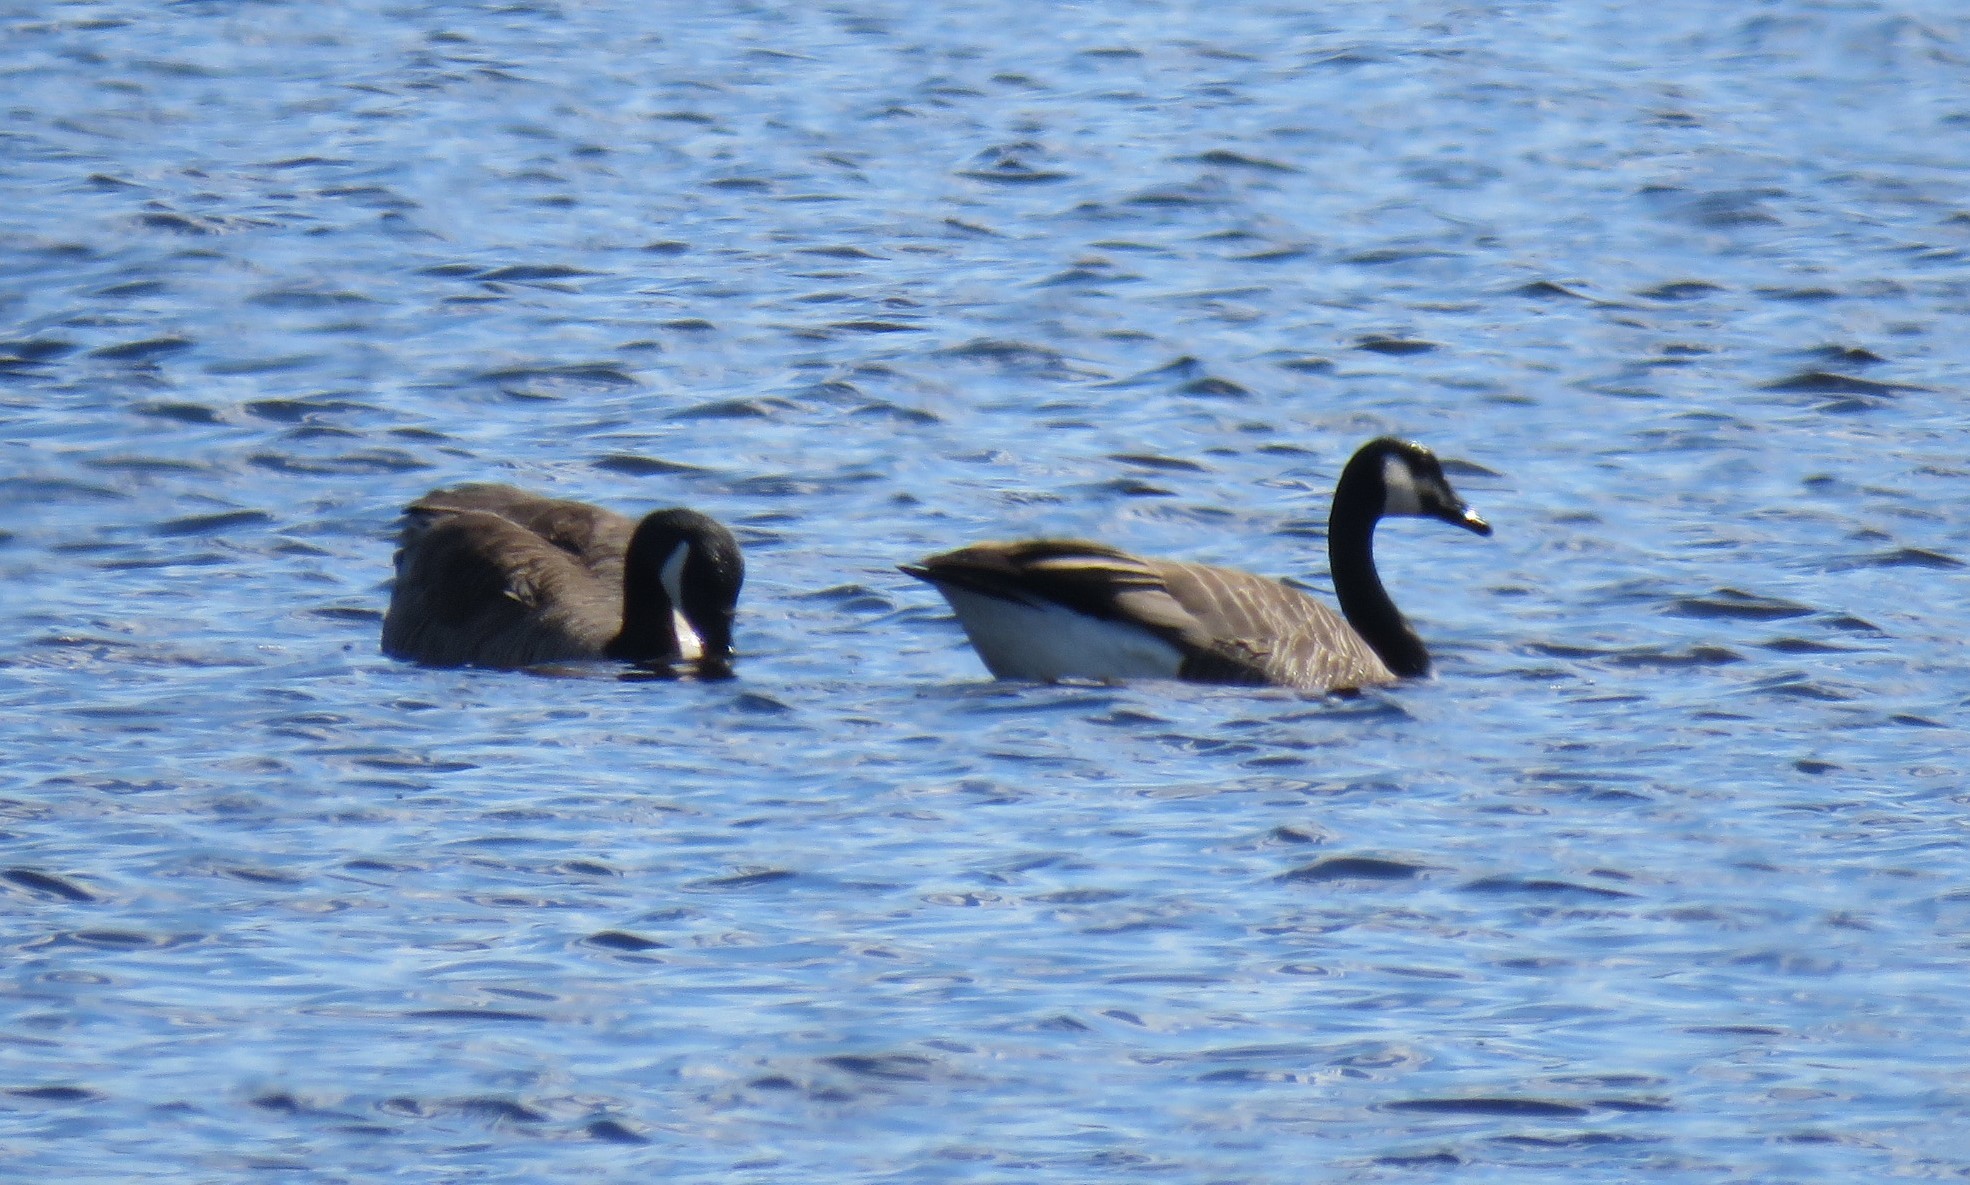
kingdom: Animalia
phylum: Chordata
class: Aves
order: Anseriformes
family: Anatidae
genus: Branta
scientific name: Branta canadensis
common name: Canada goose
